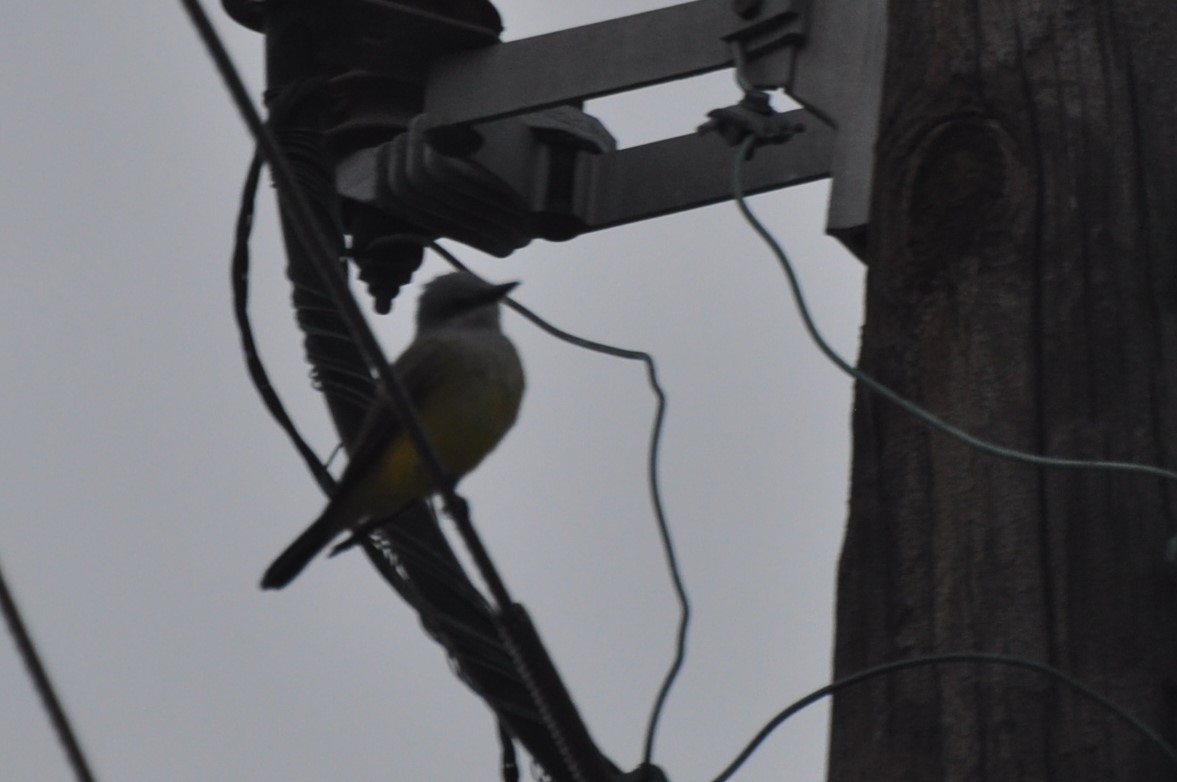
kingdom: Animalia
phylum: Chordata
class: Aves
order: Passeriformes
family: Tyrannidae
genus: Tyrannus
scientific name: Tyrannus verticalis
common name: Western kingbird
